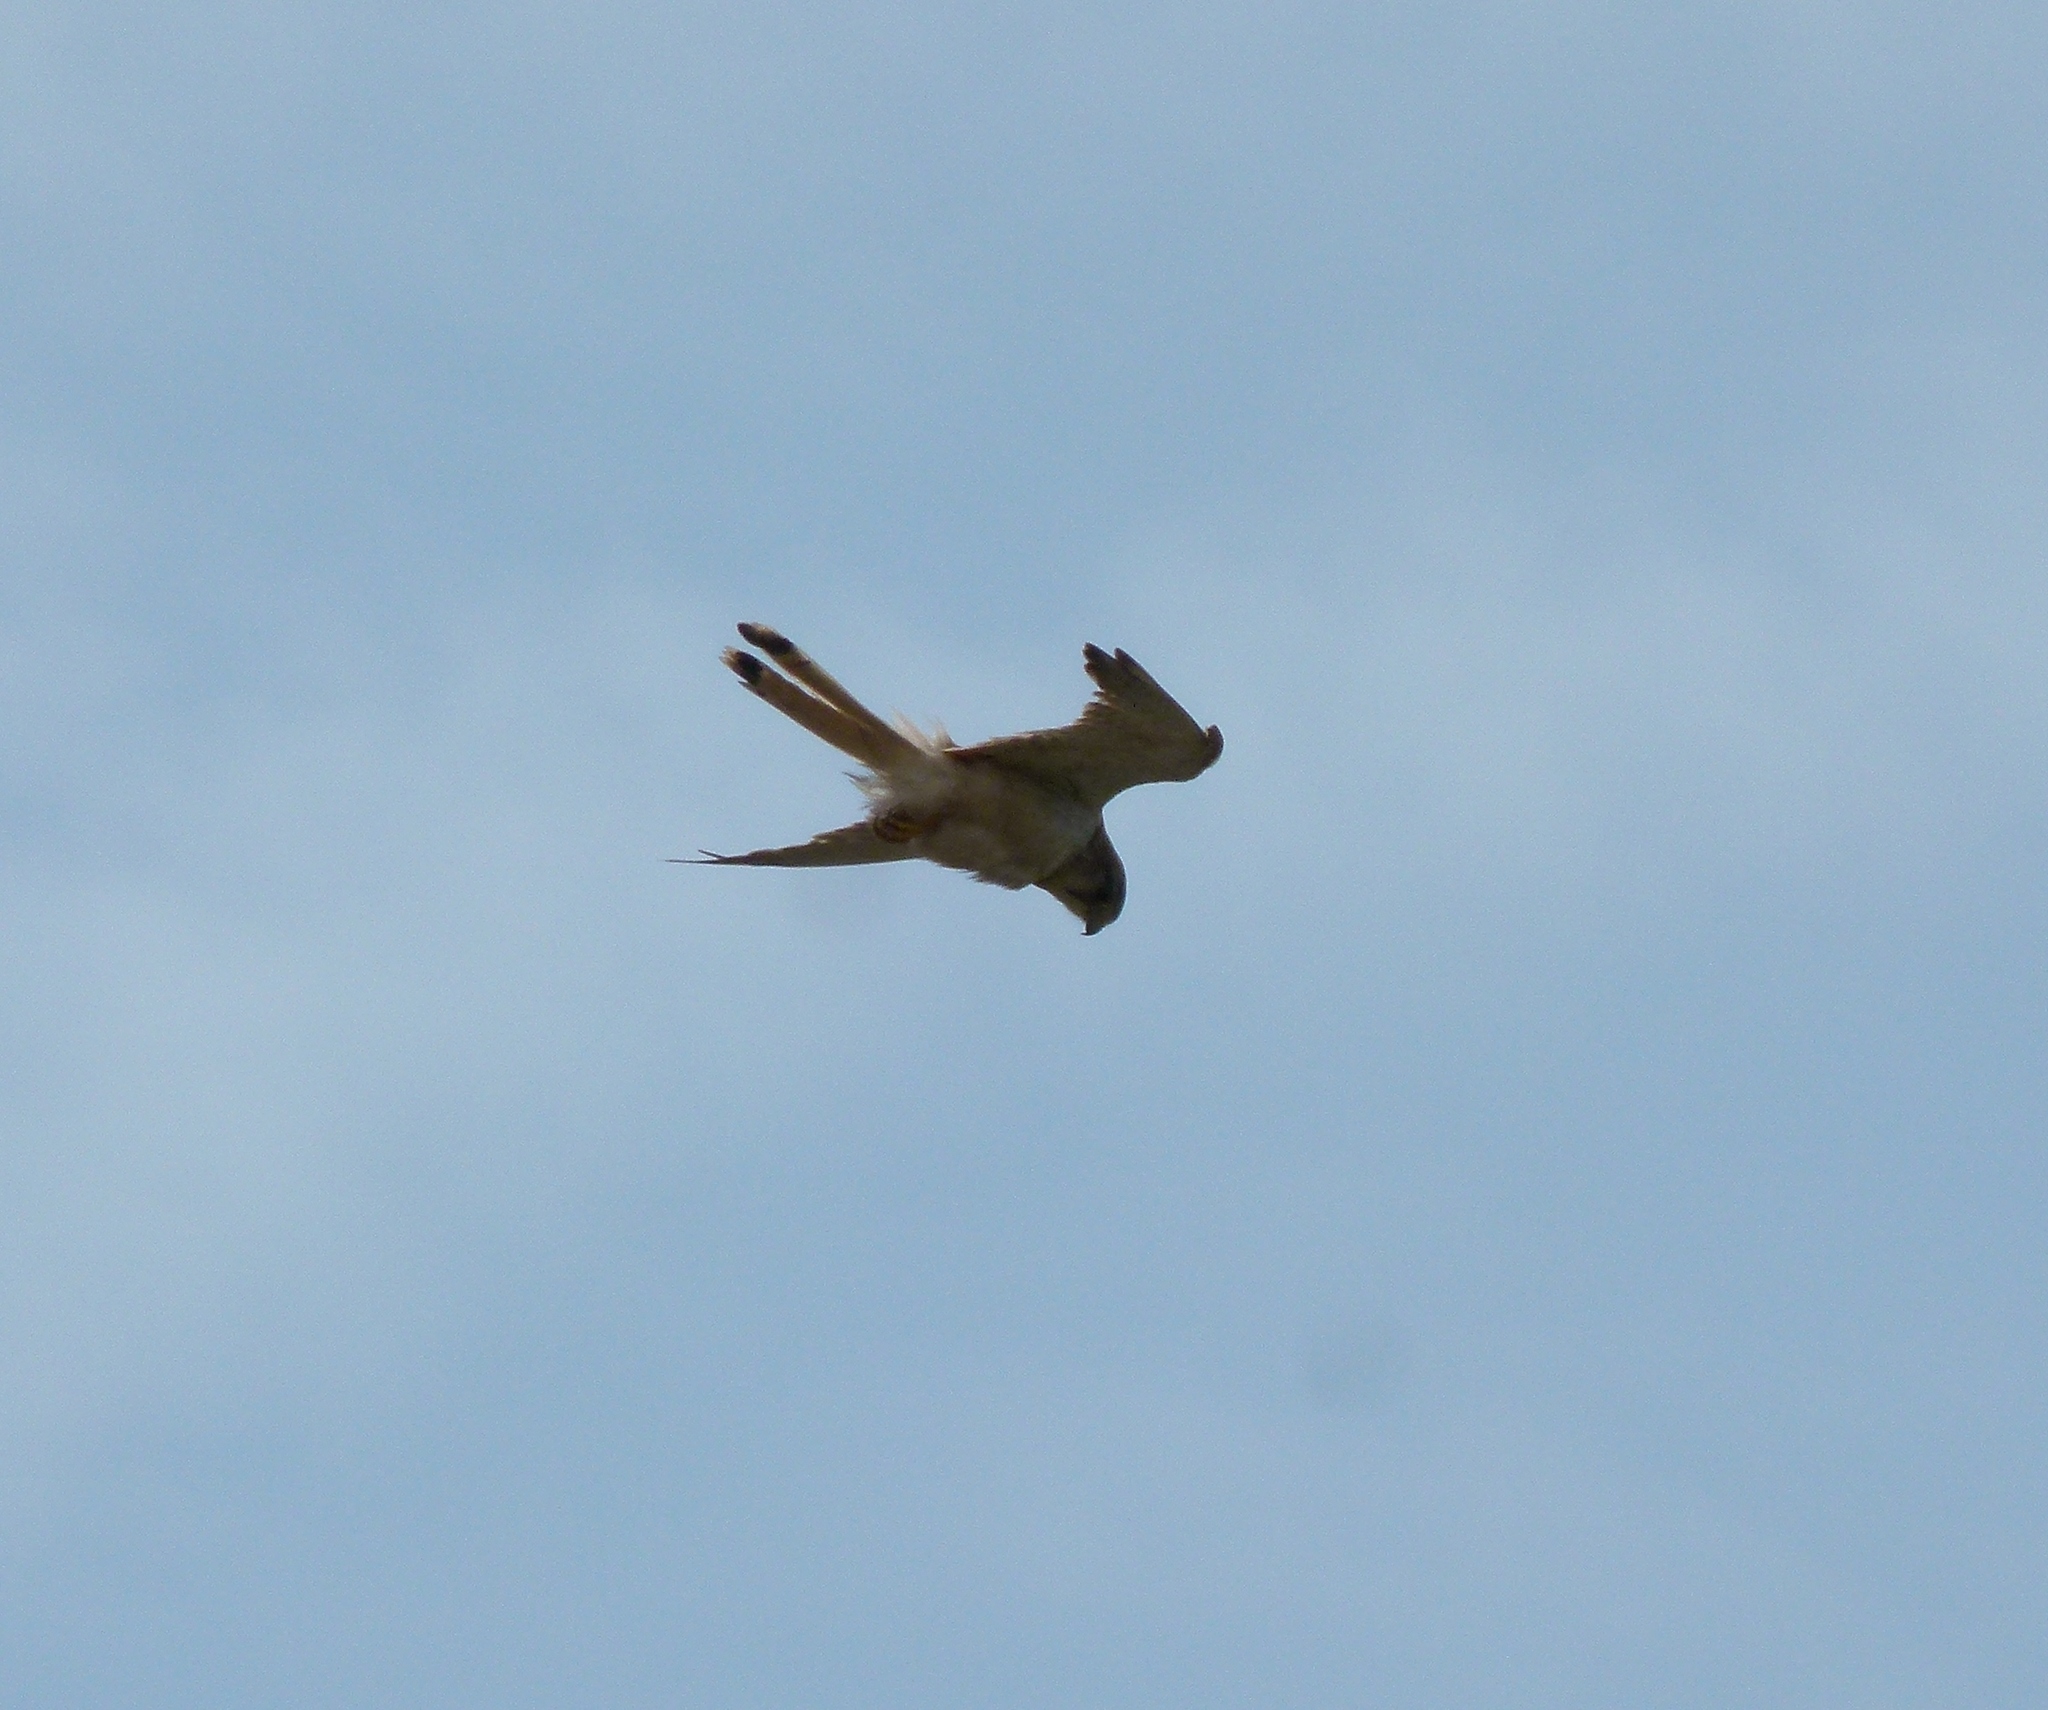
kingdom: Animalia
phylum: Chordata
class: Aves
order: Falconiformes
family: Falconidae
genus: Falco
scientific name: Falco cenchroides
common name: Nankeen kestrel
